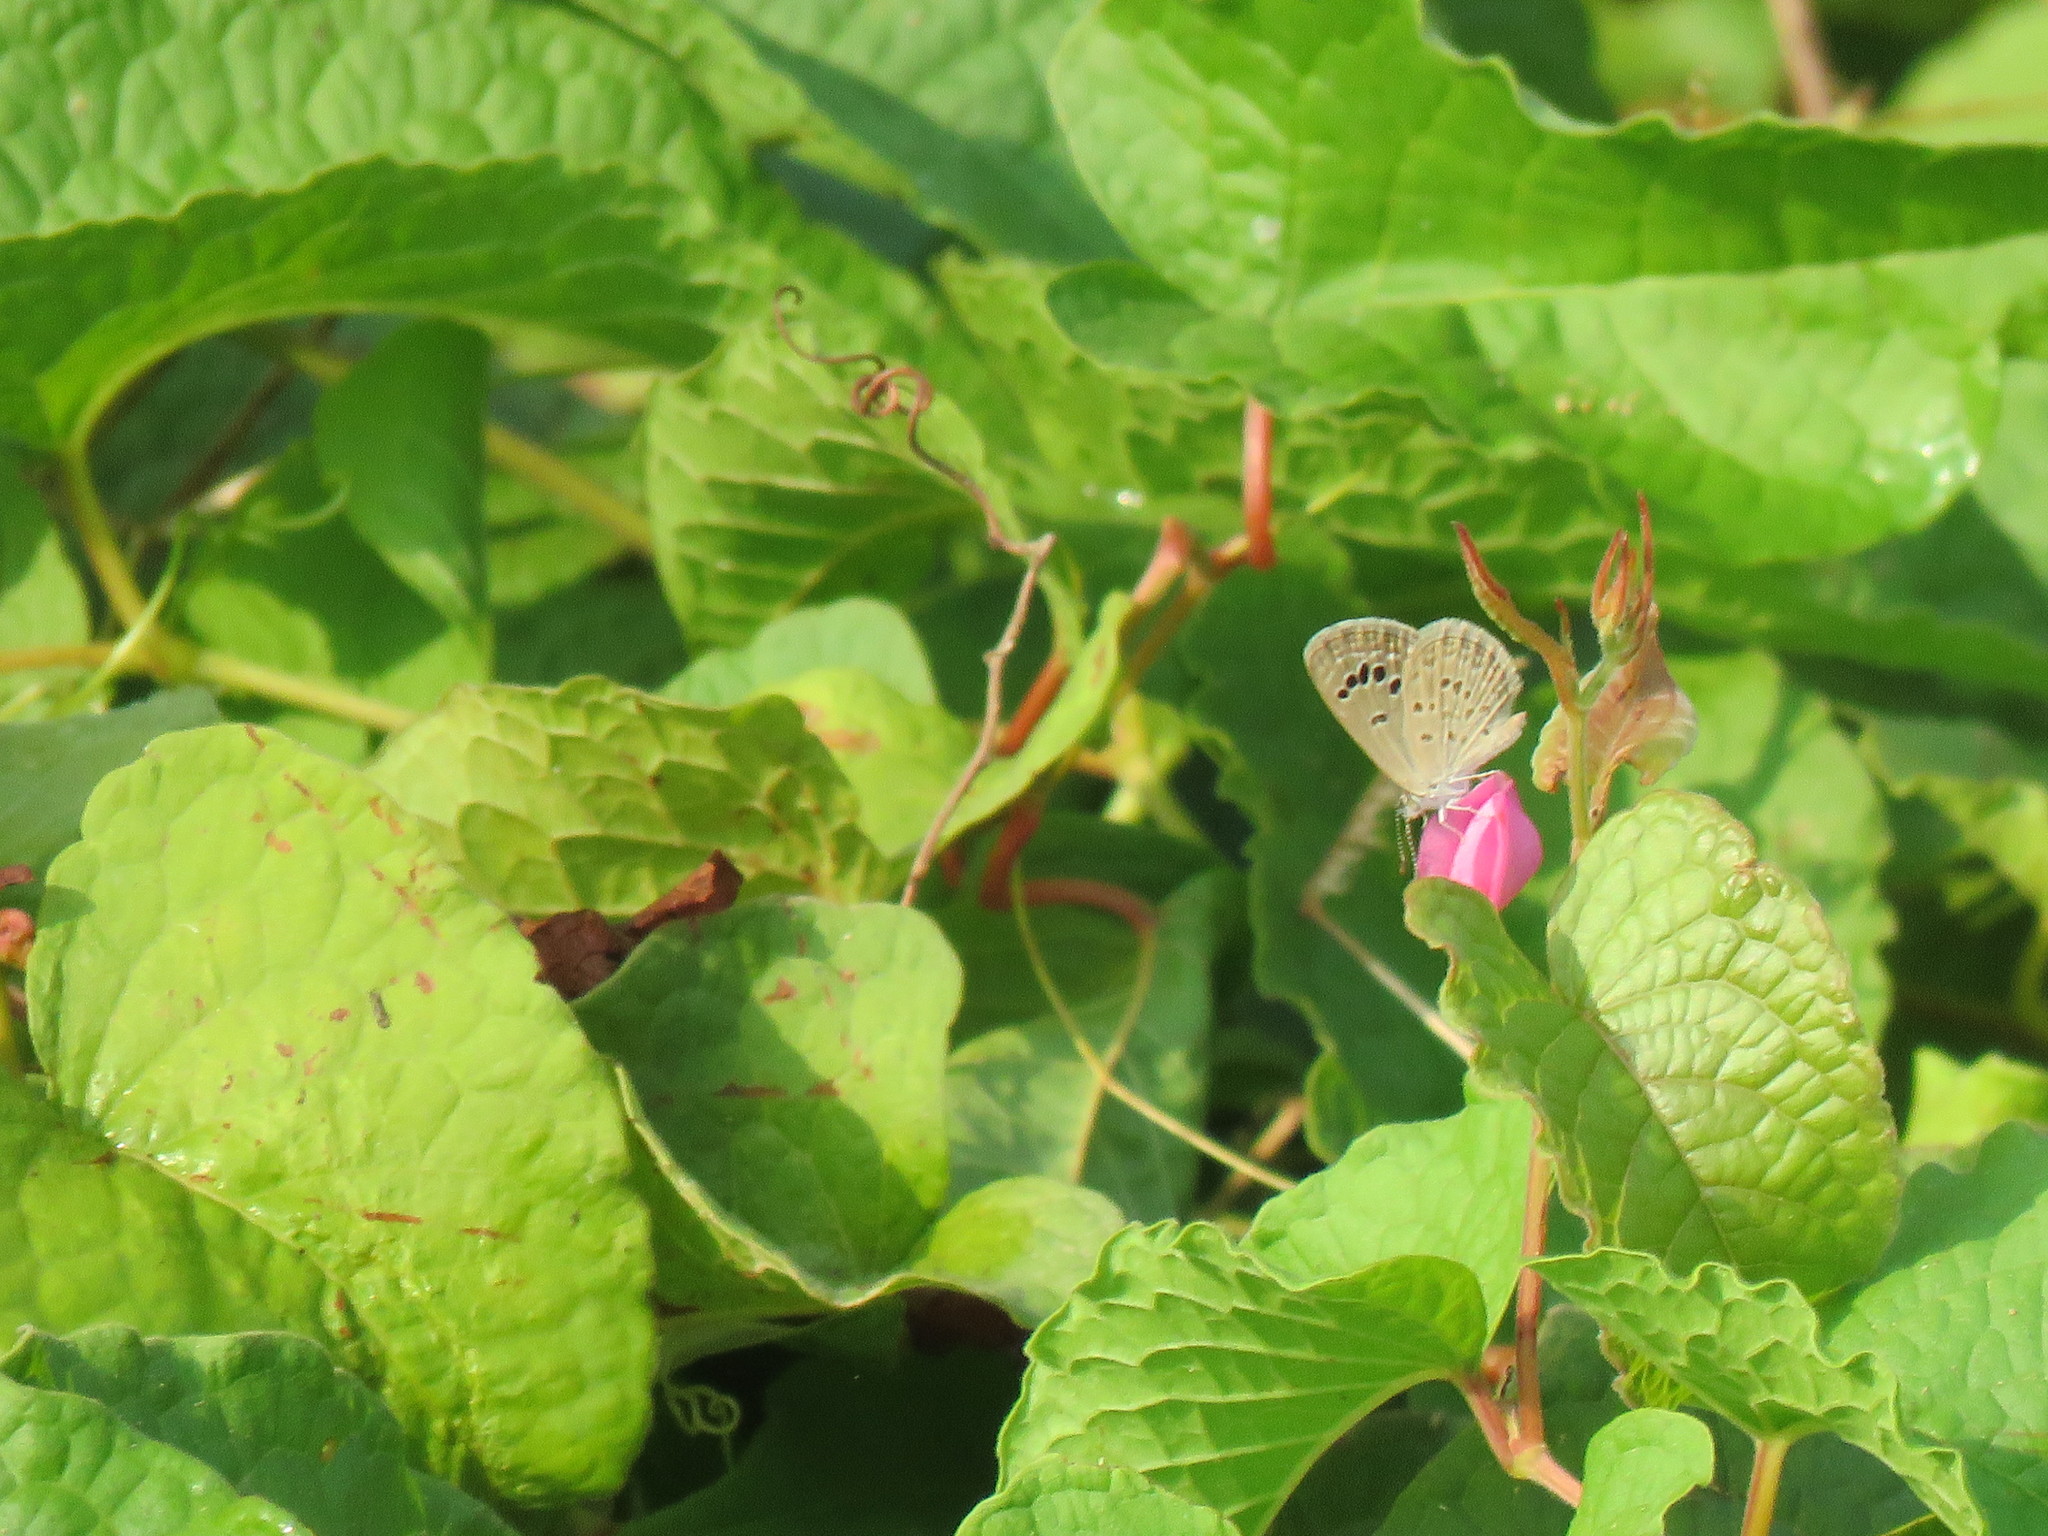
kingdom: Animalia
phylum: Arthropoda
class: Insecta
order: Lepidoptera
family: Lycaenidae
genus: Zizina
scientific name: Zizina otis
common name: Lesser grass blue
